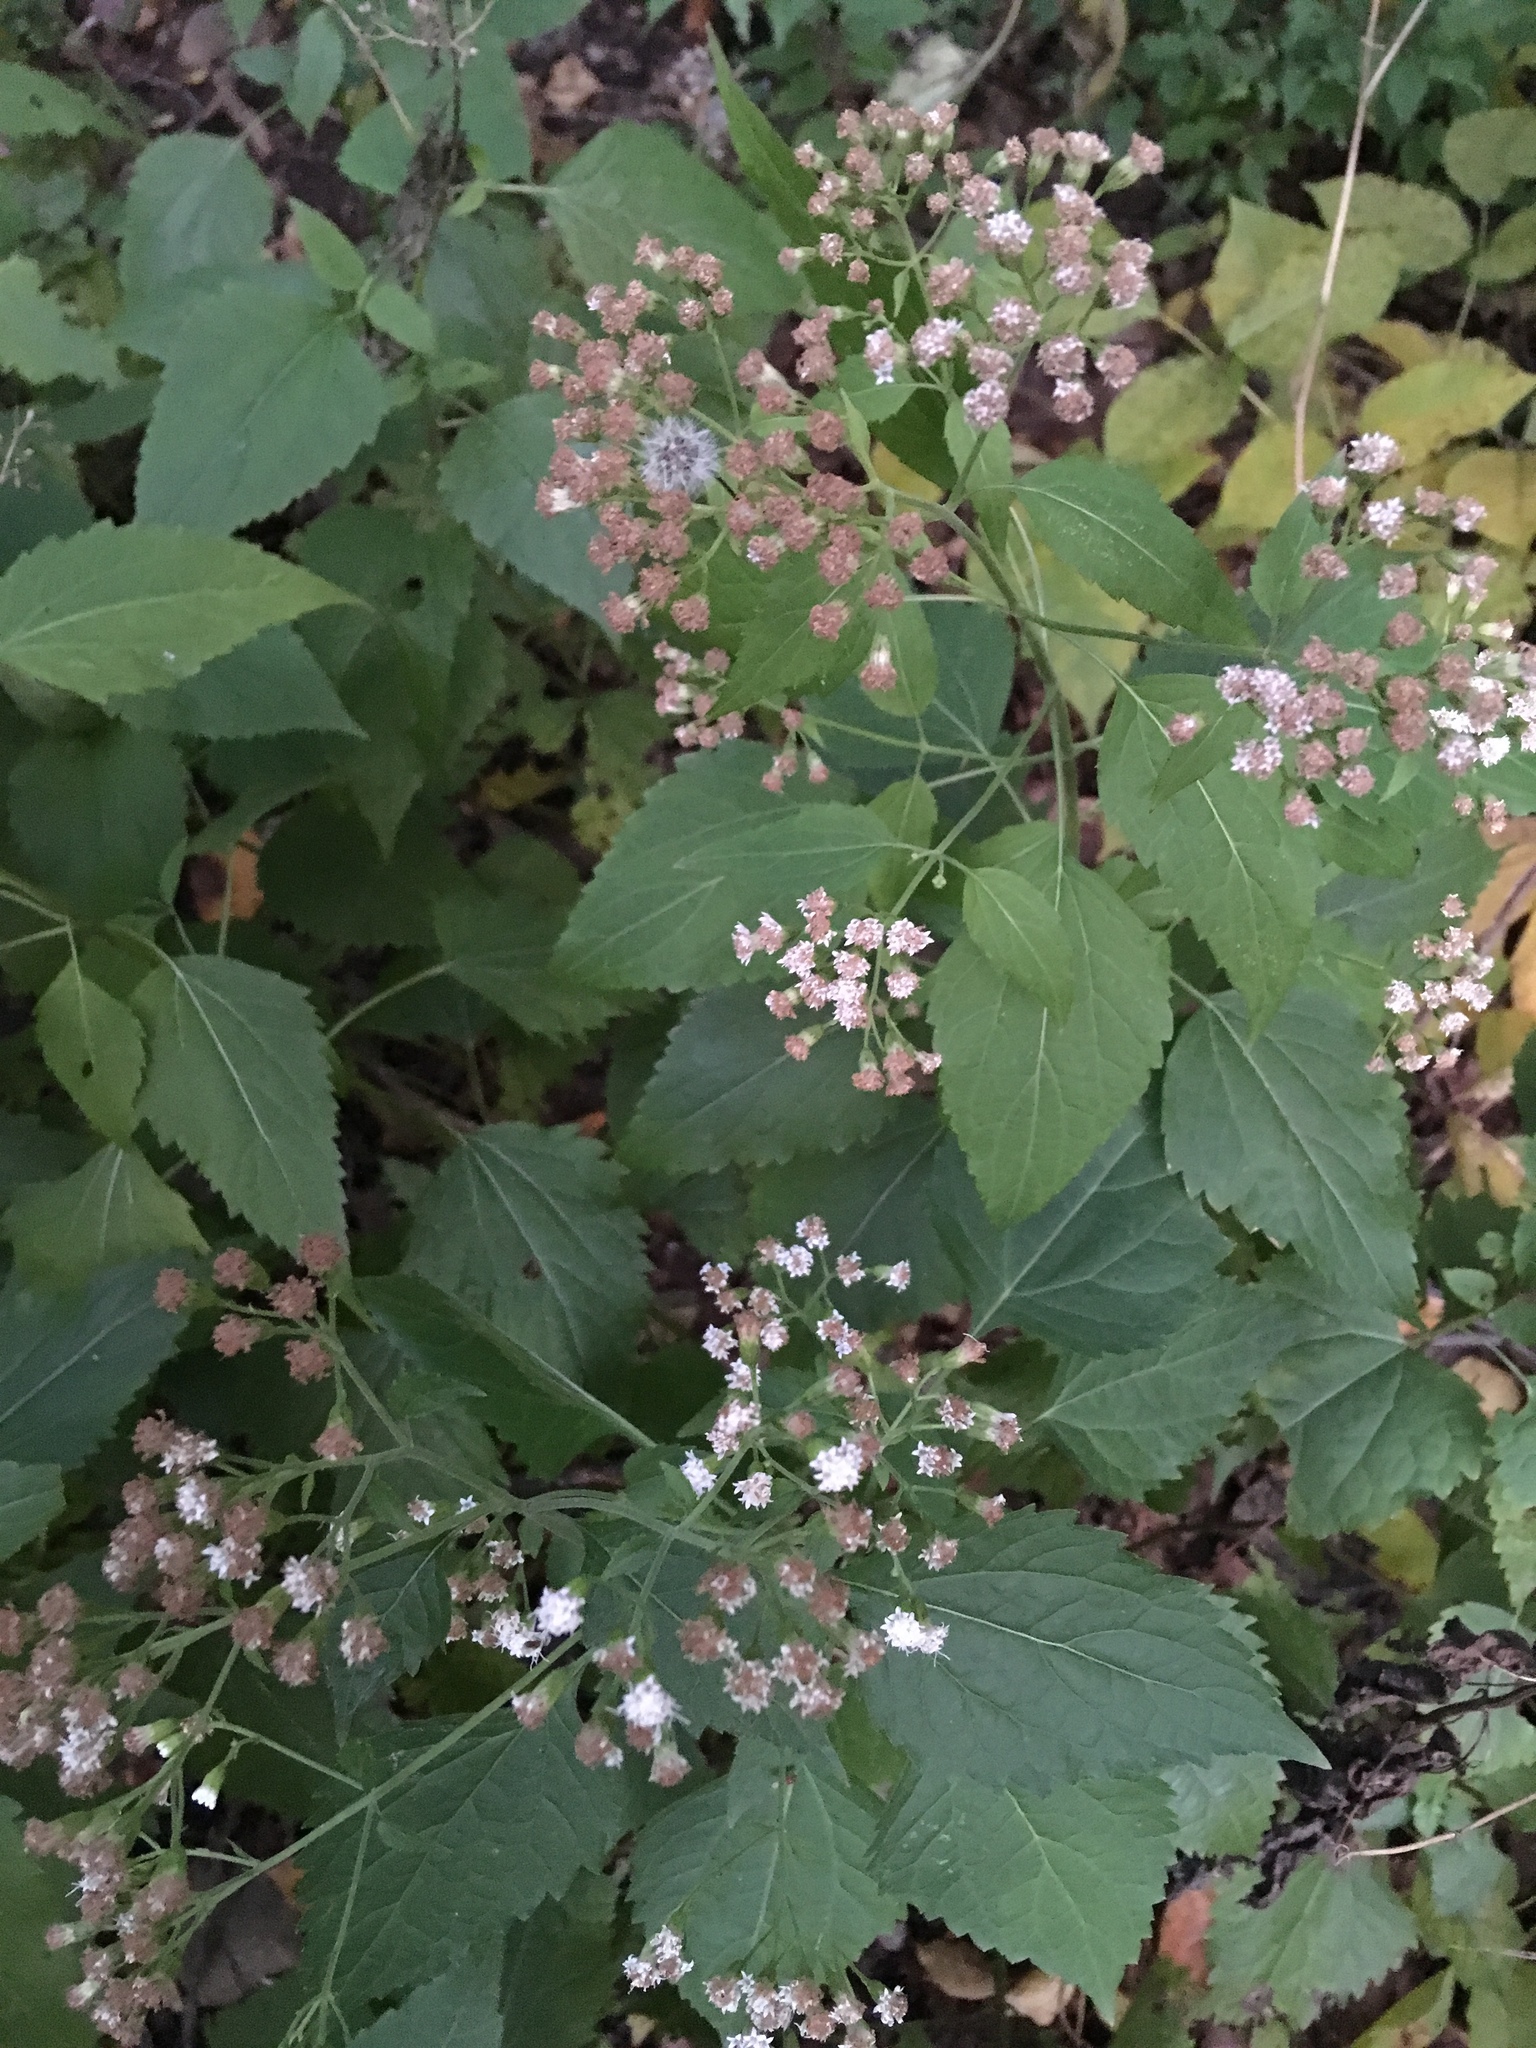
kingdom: Plantae
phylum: Tracheophyta
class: Magnoliopsida
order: Asterales
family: Asteraceae
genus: Ageratina
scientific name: Ageratina altissima
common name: White snakeroot
